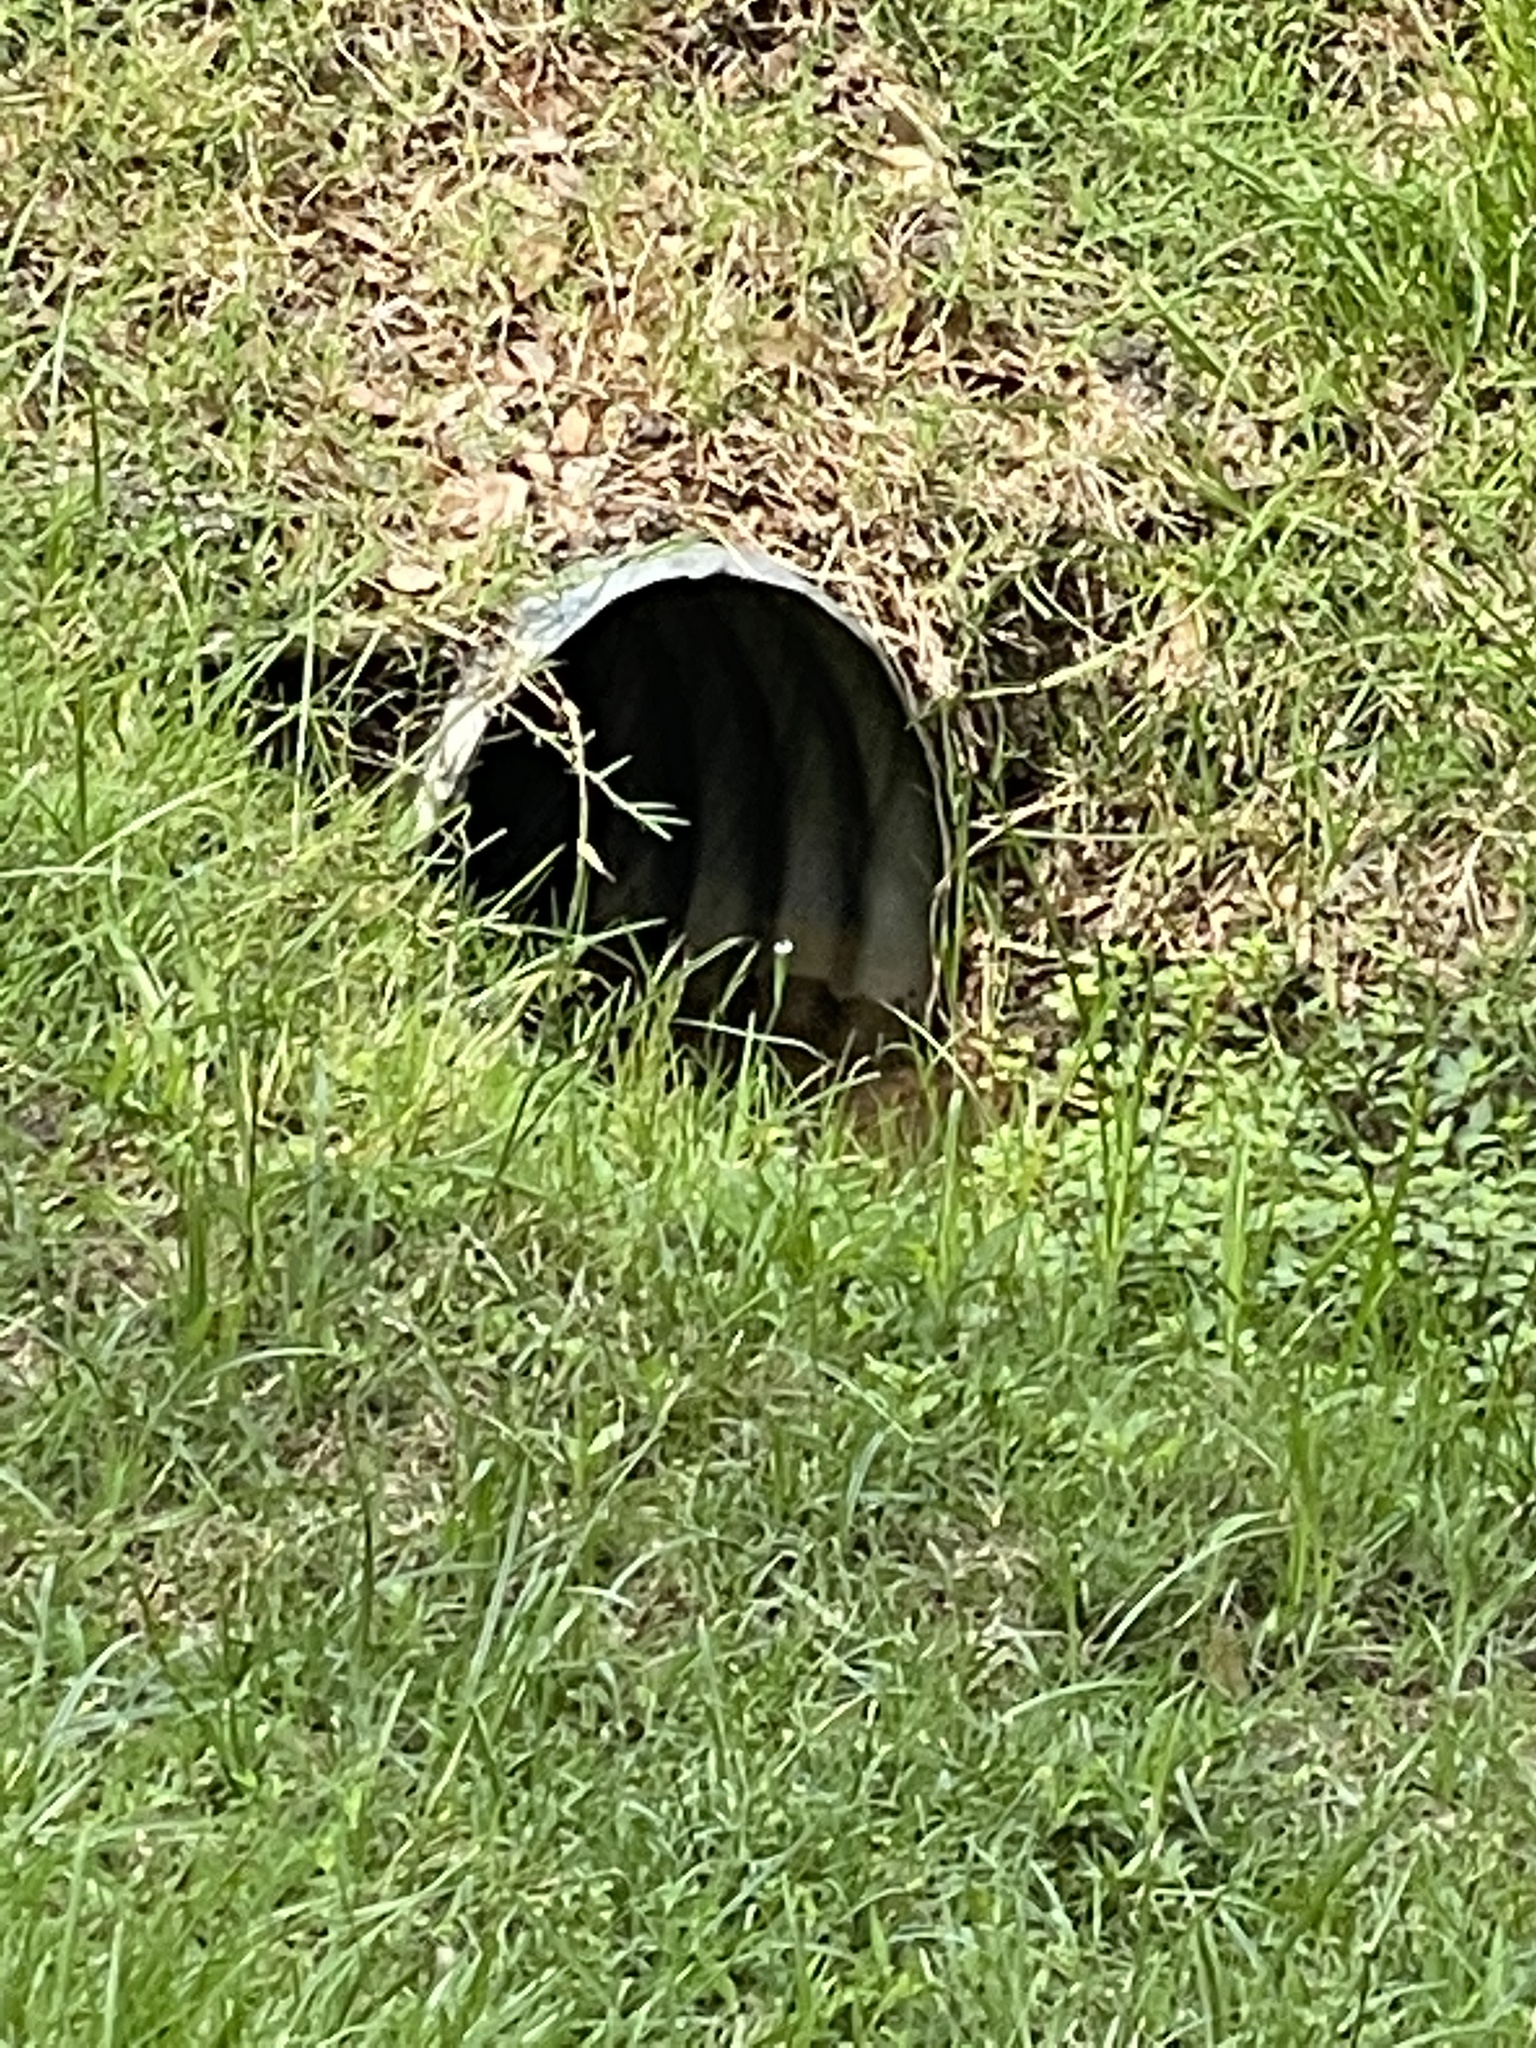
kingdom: Animalia
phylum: Chordata
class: Mammalia
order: Lagomorpha
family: Leporidae
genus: Sylvilagus
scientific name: Sylvilagus aquaticus
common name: Swamp rabbit
